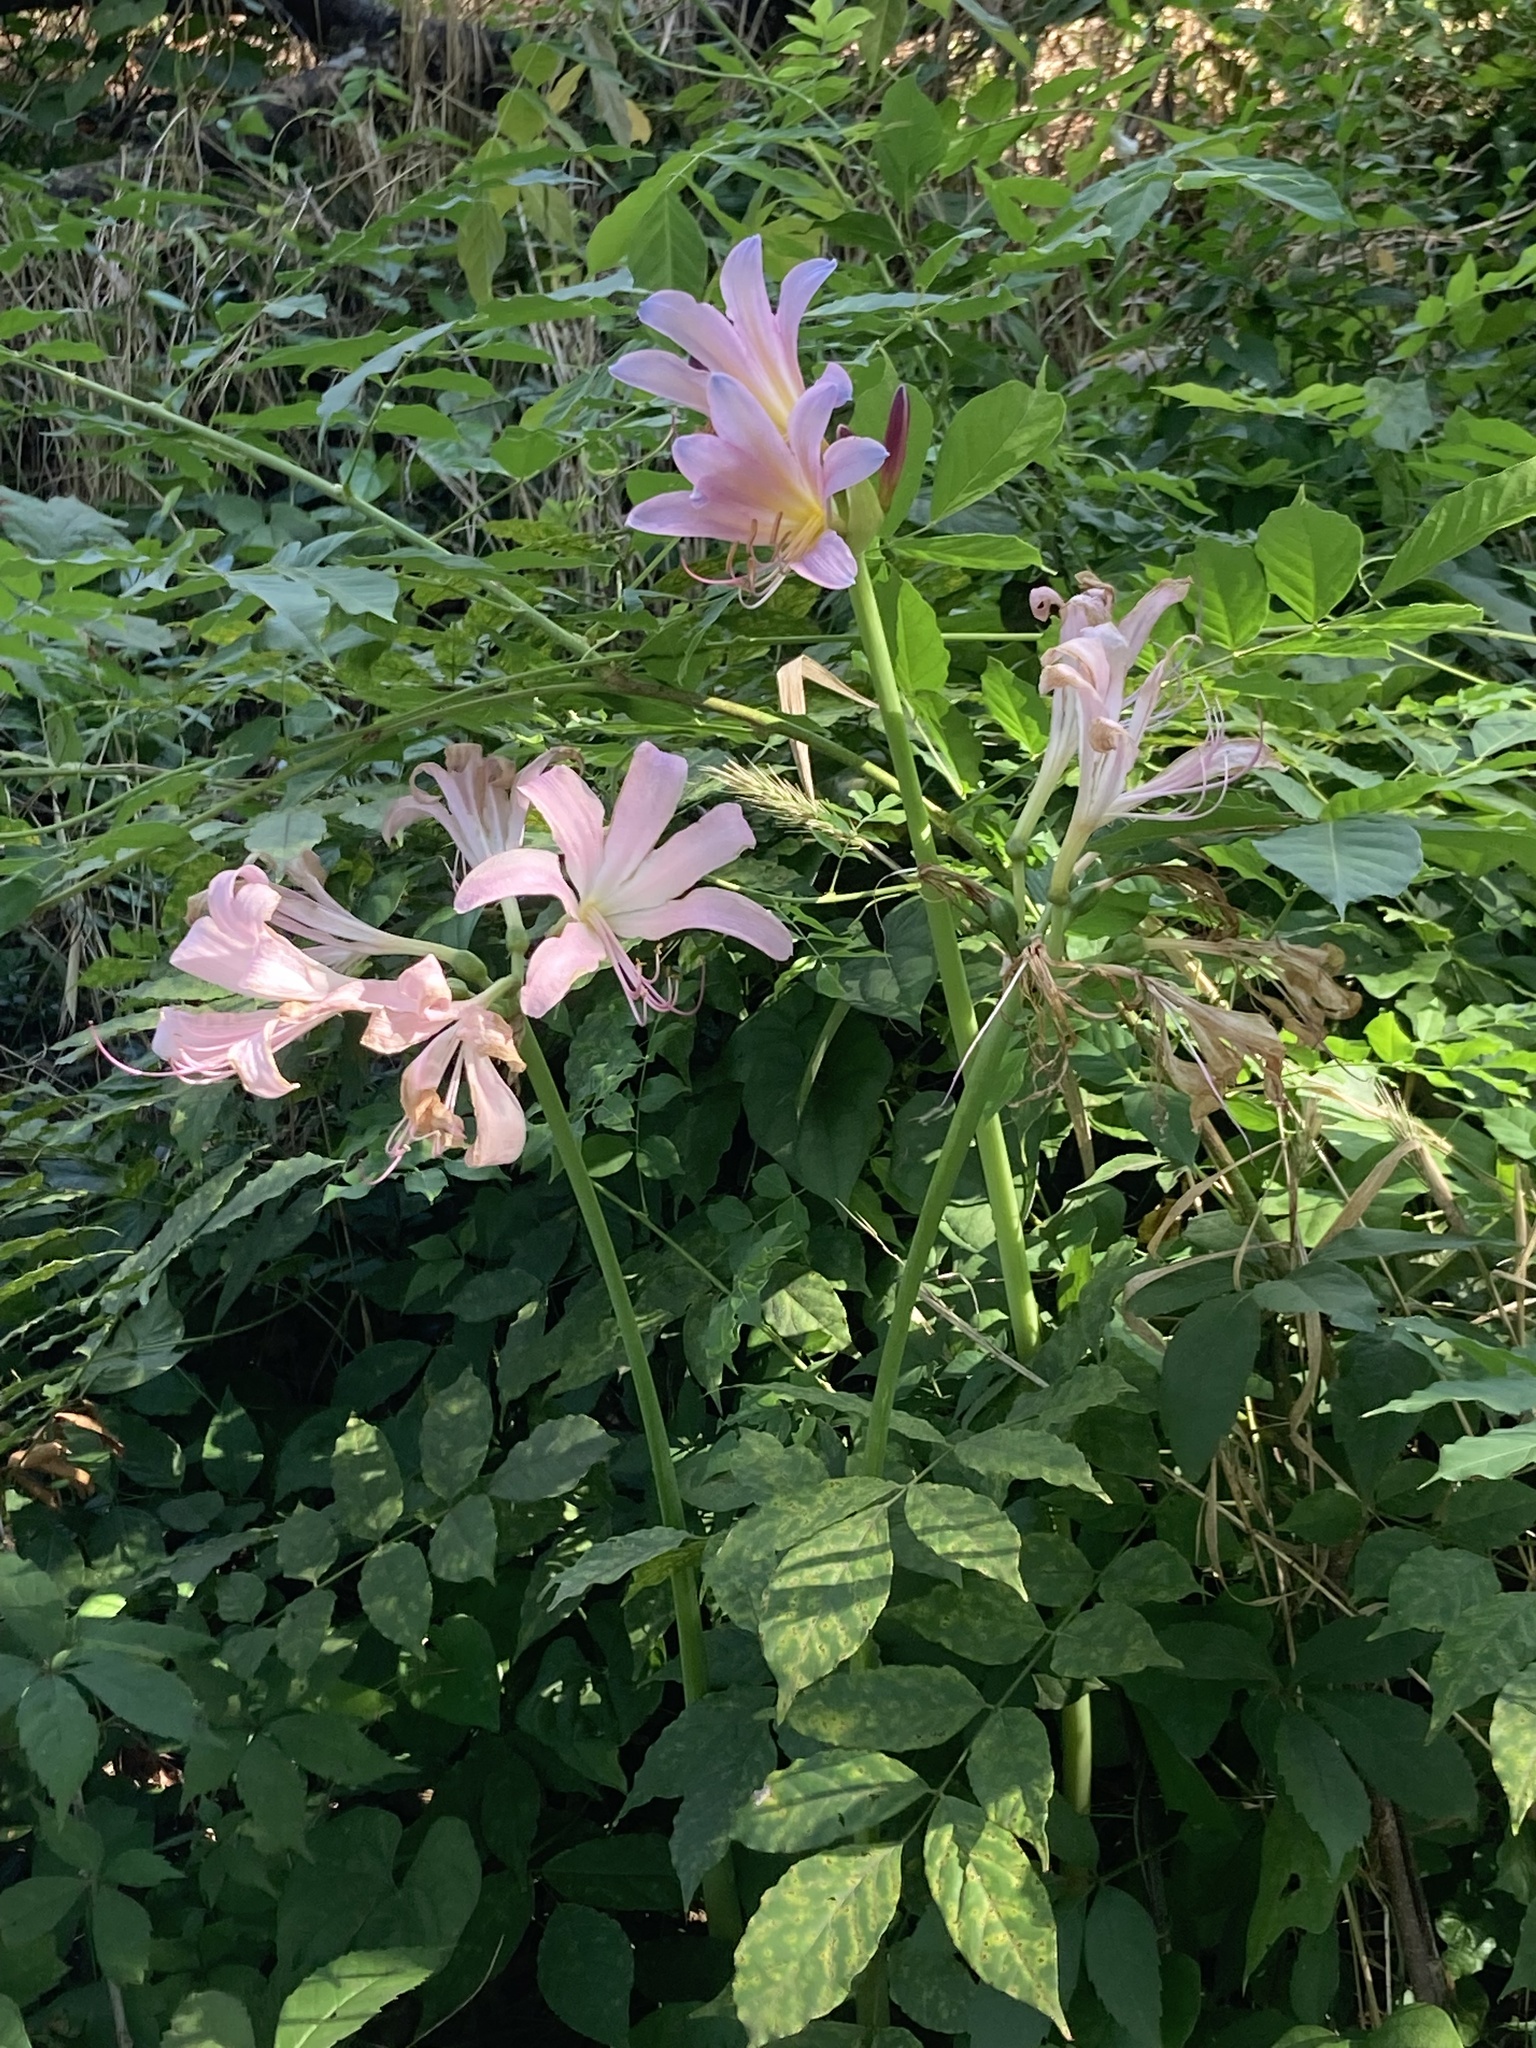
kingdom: Plantae
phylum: Tracheophyta
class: Liliopsida
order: Asparagales
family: Amaryllidaceae
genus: Lycoris
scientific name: Lycoris squamigera
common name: Magic-lily
